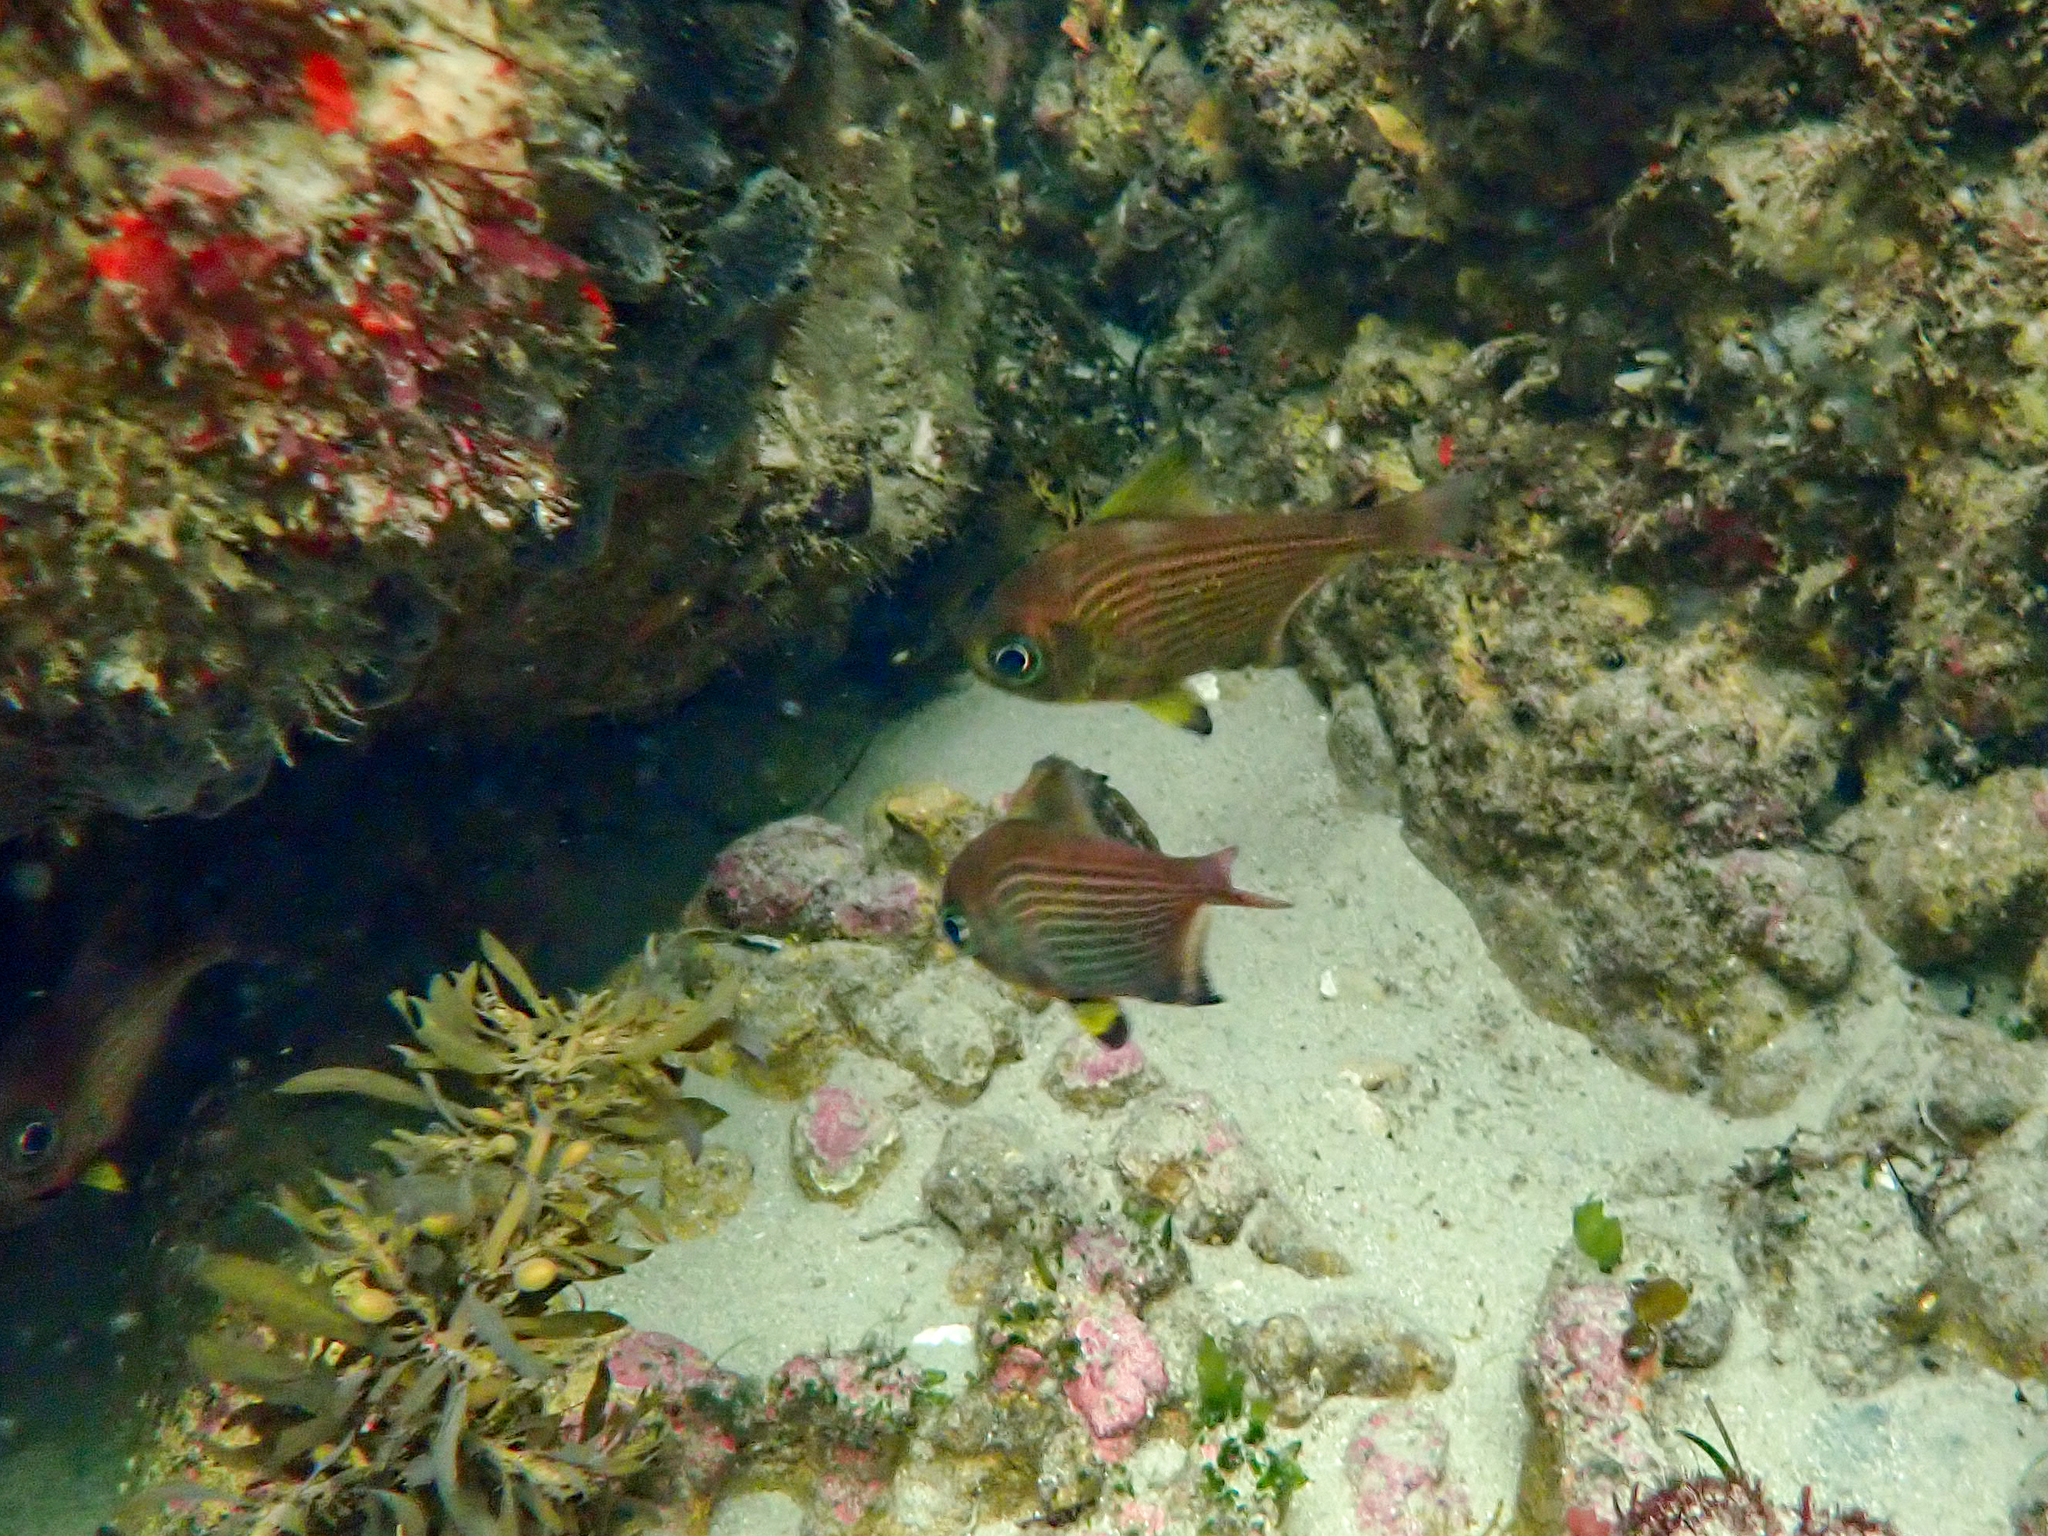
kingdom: Animalia
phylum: Chordata
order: Perciformes
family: Pempheridae
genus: Pempheris
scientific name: Pempheris multiradiata
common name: Big-scaled bullseye
